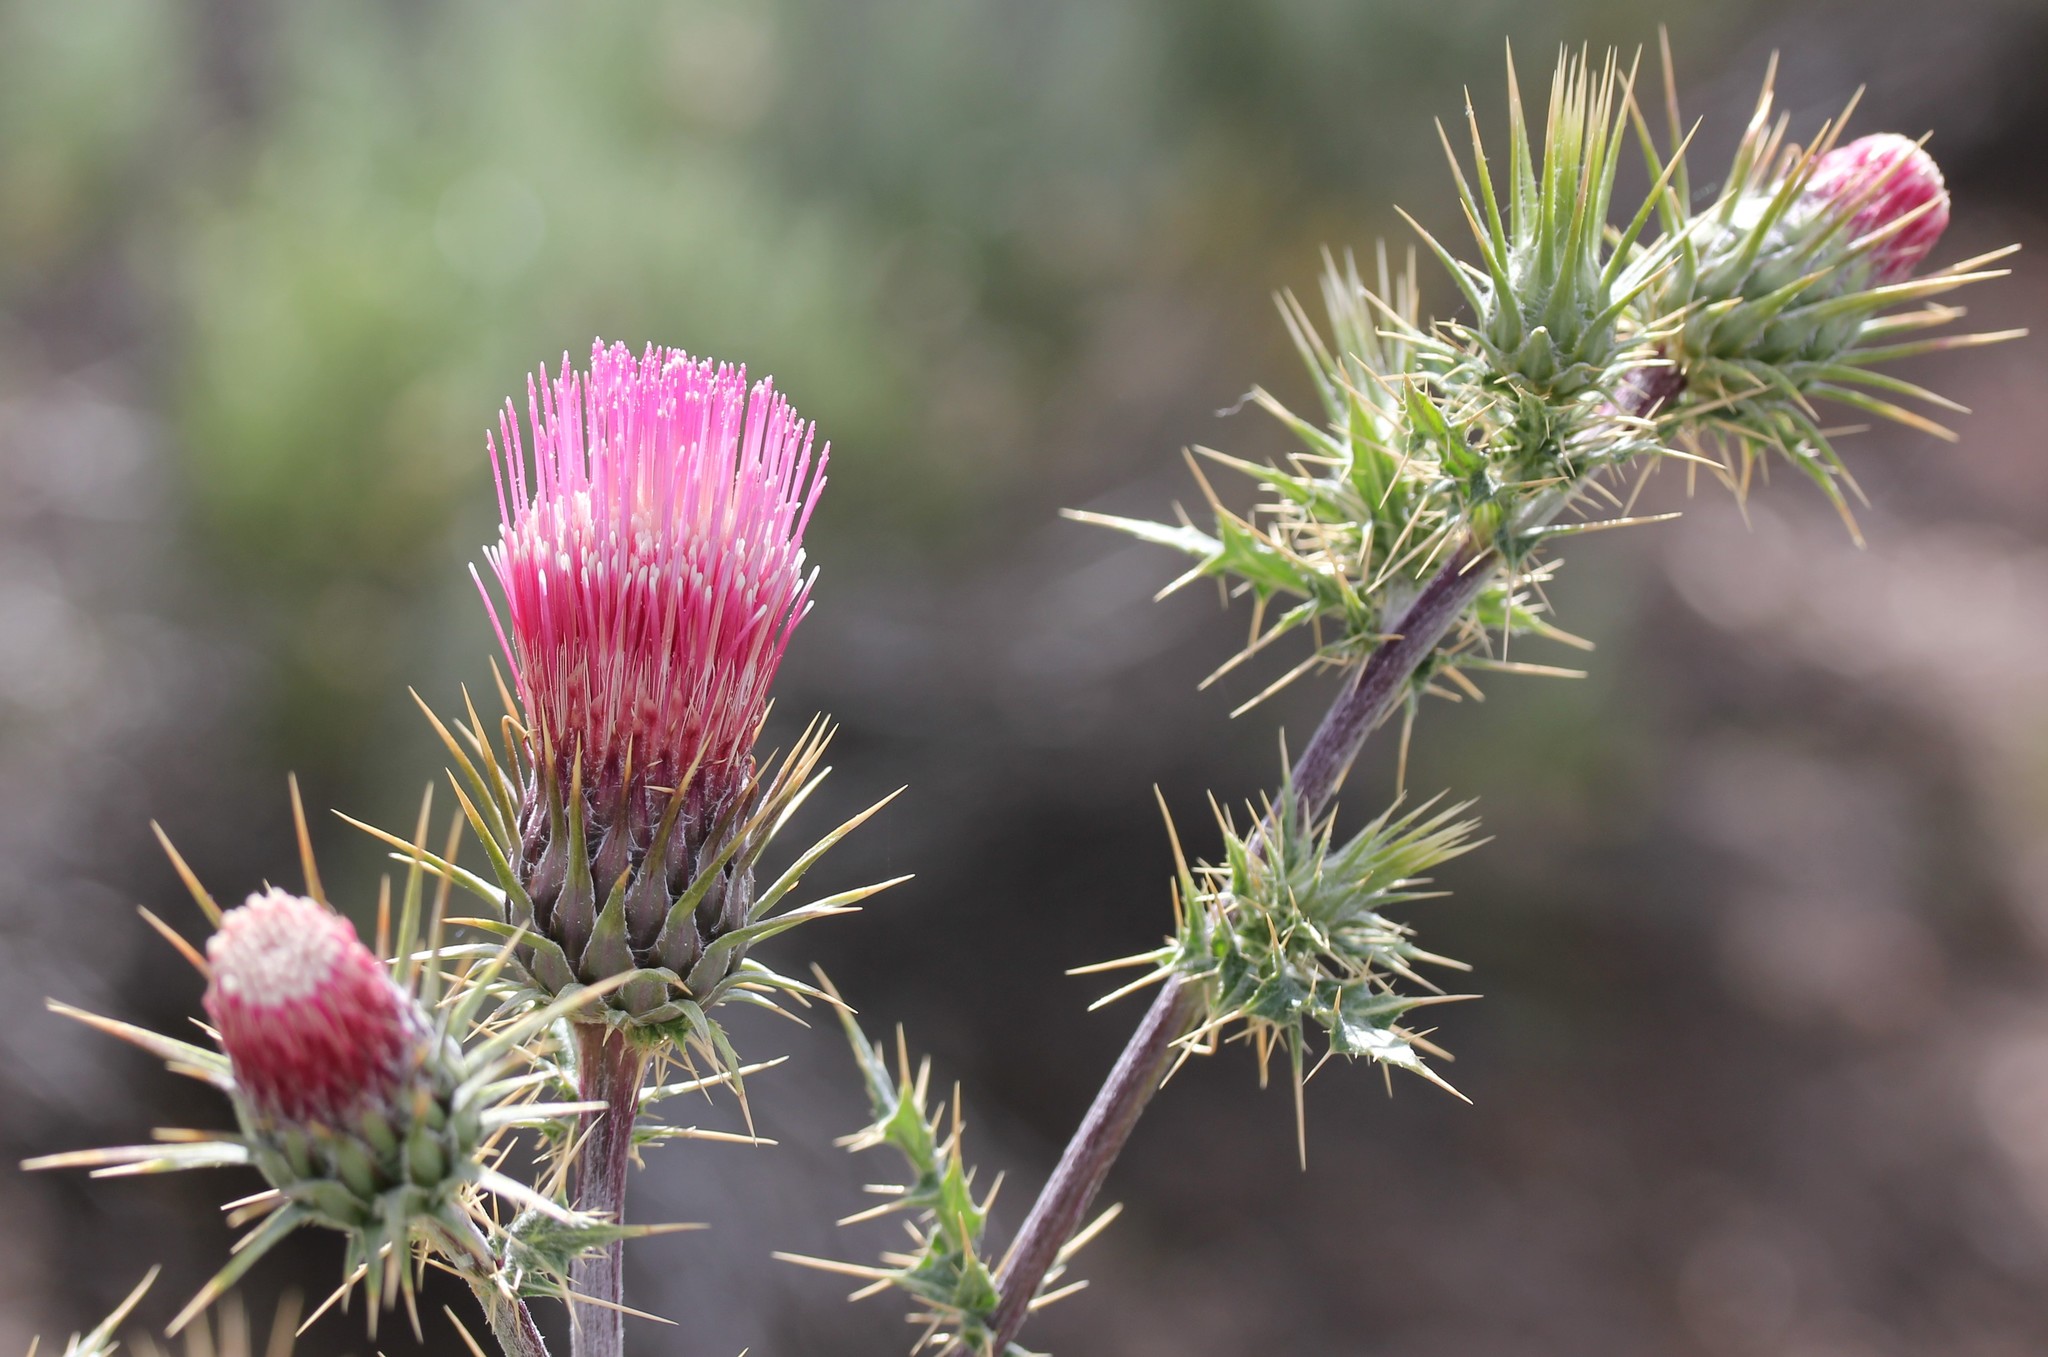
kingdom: Plantae
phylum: Tracheophyta
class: Magnoliopsida
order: Asterales
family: Asteraceae
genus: Cirsium
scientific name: Cirsium arizonicum
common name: Arizona thistle
